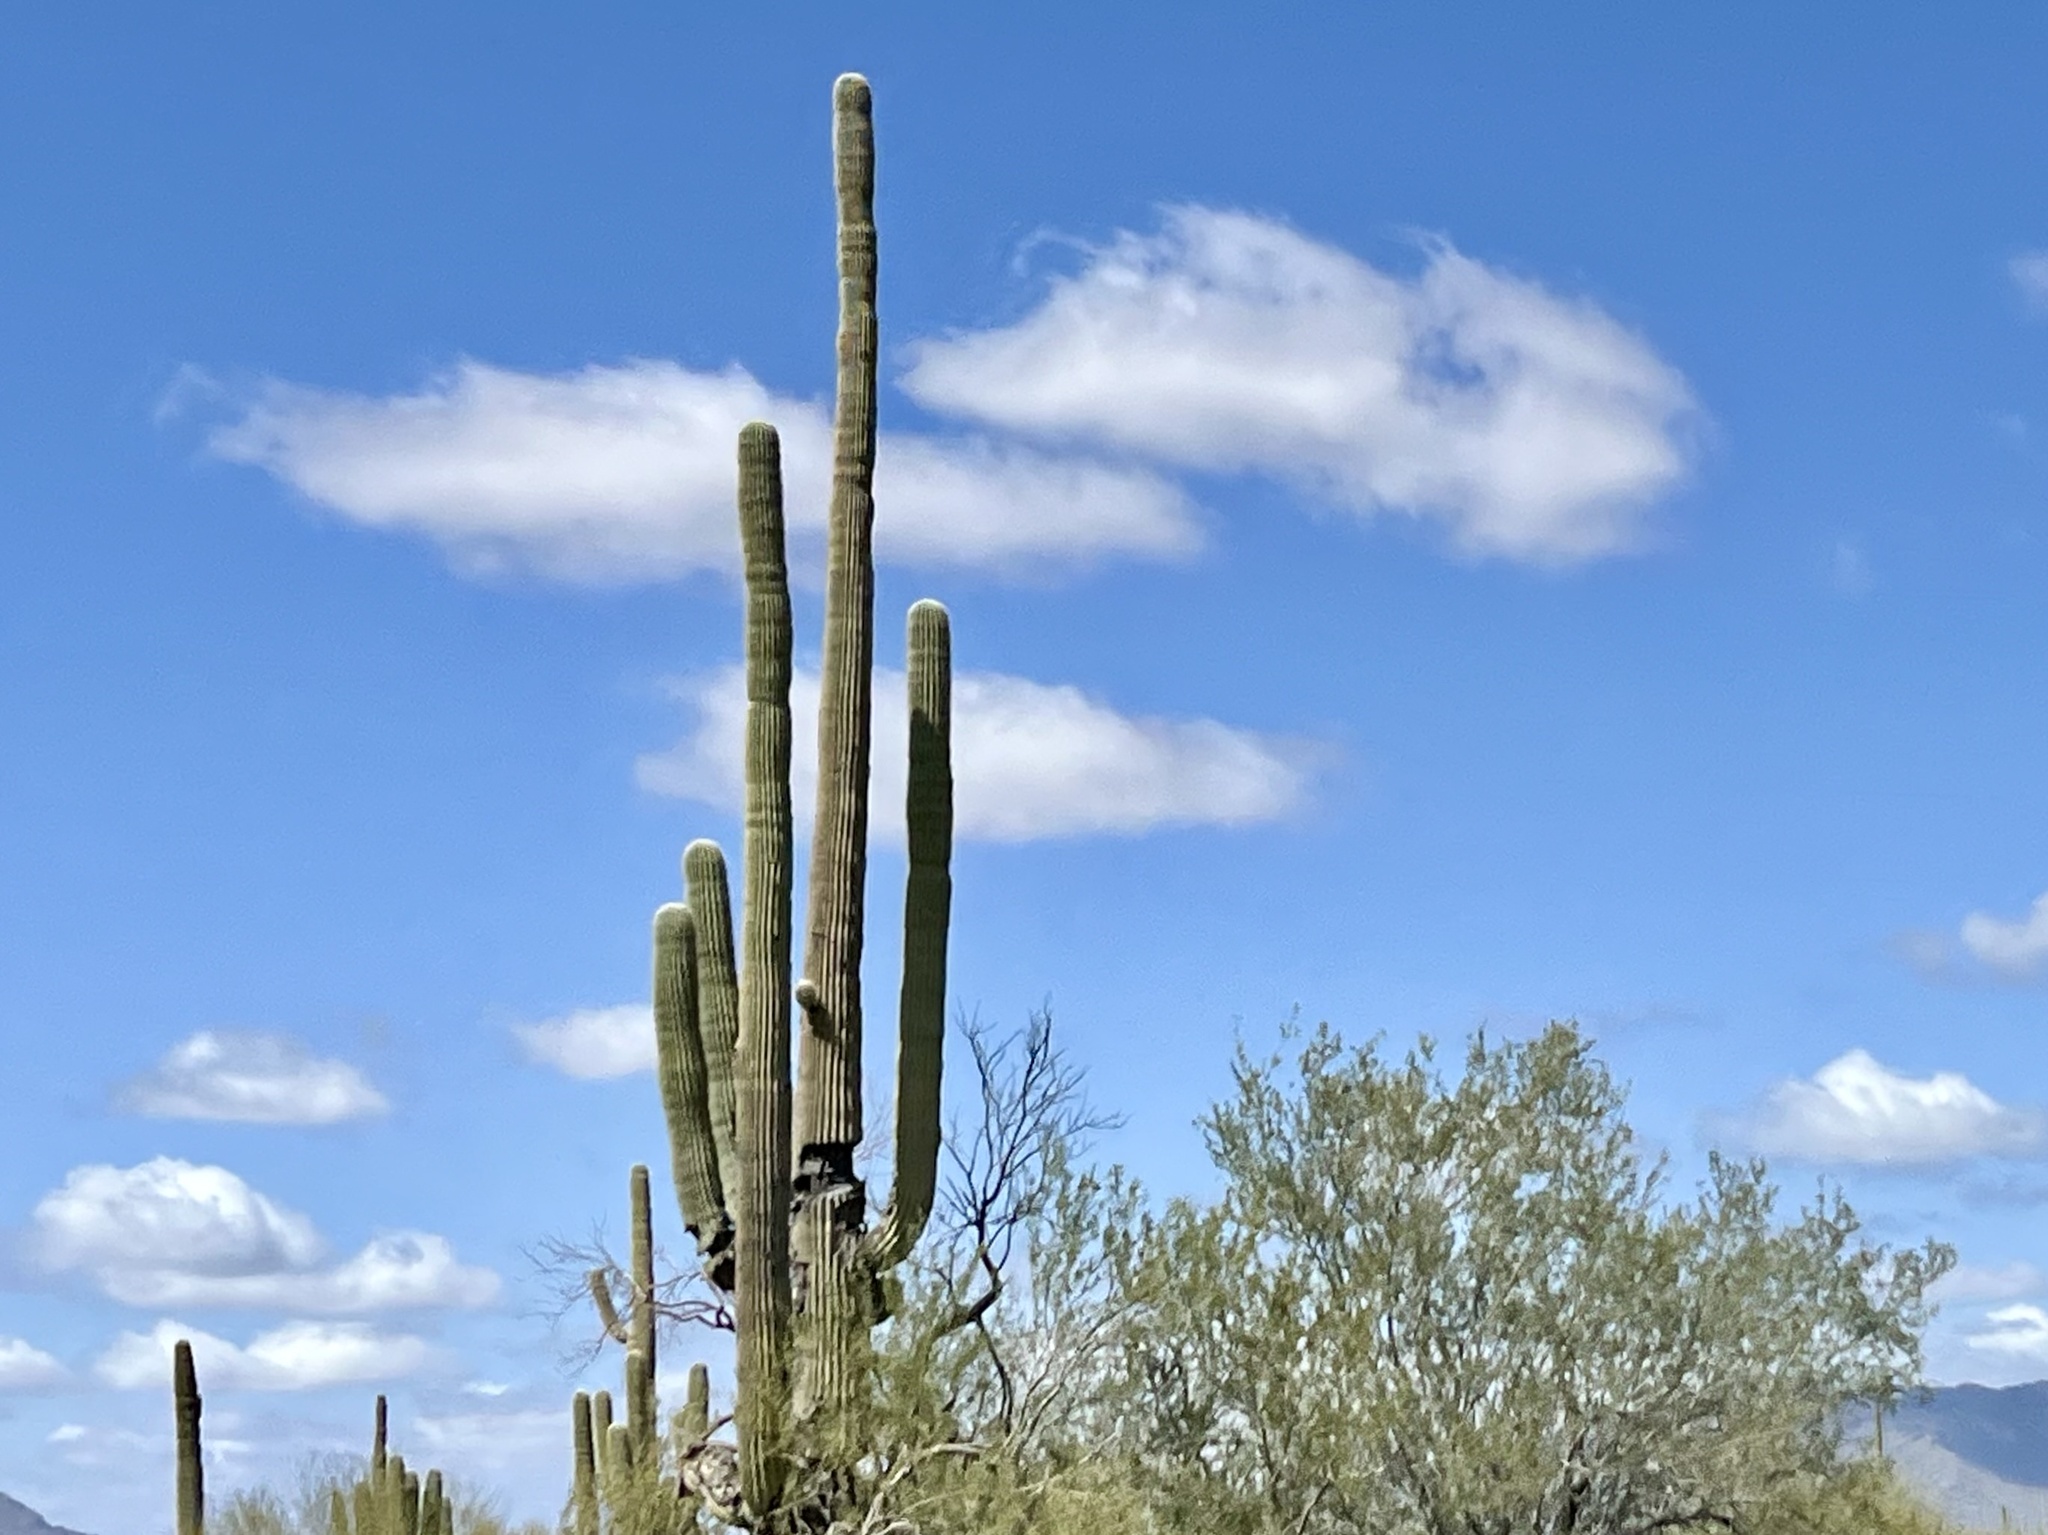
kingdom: Plantae
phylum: Tracheophyta
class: Magnoliopsida
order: Caryophyllales
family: Cactaceae
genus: Carnegiea
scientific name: Carnegiea gigantea
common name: Saguaro
